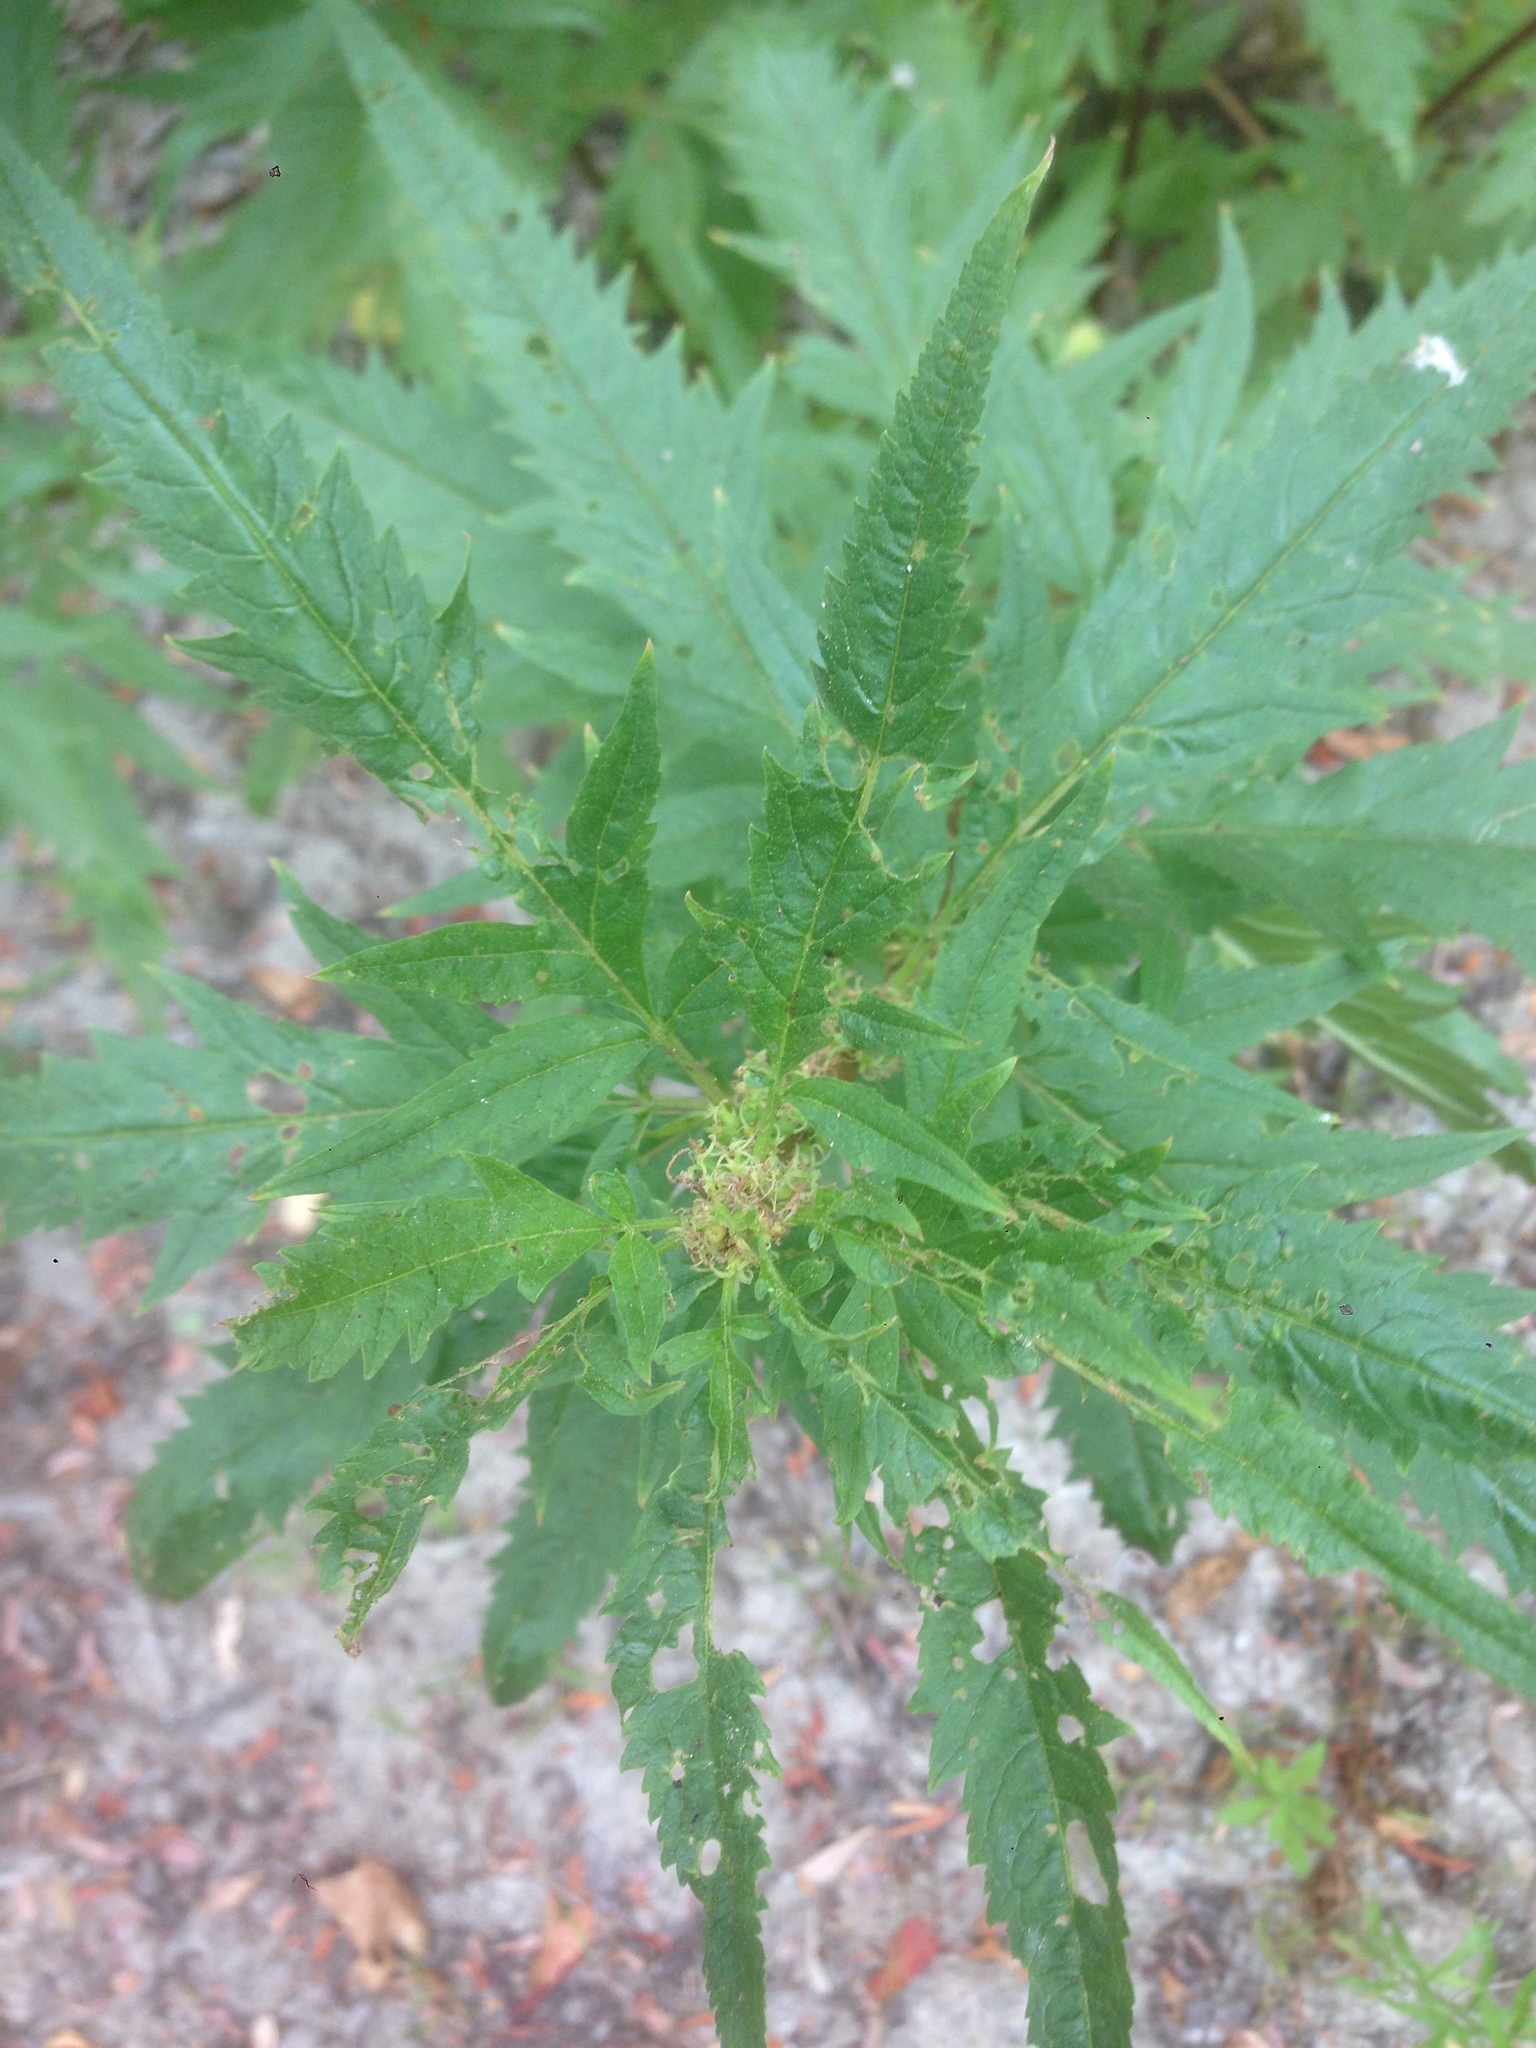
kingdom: Plantae
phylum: Tracheophyta
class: Magnoliopsida
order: Cucurbitales
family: Datiscaceae
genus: Datisca
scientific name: Datisca glomerata
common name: Durango-root
